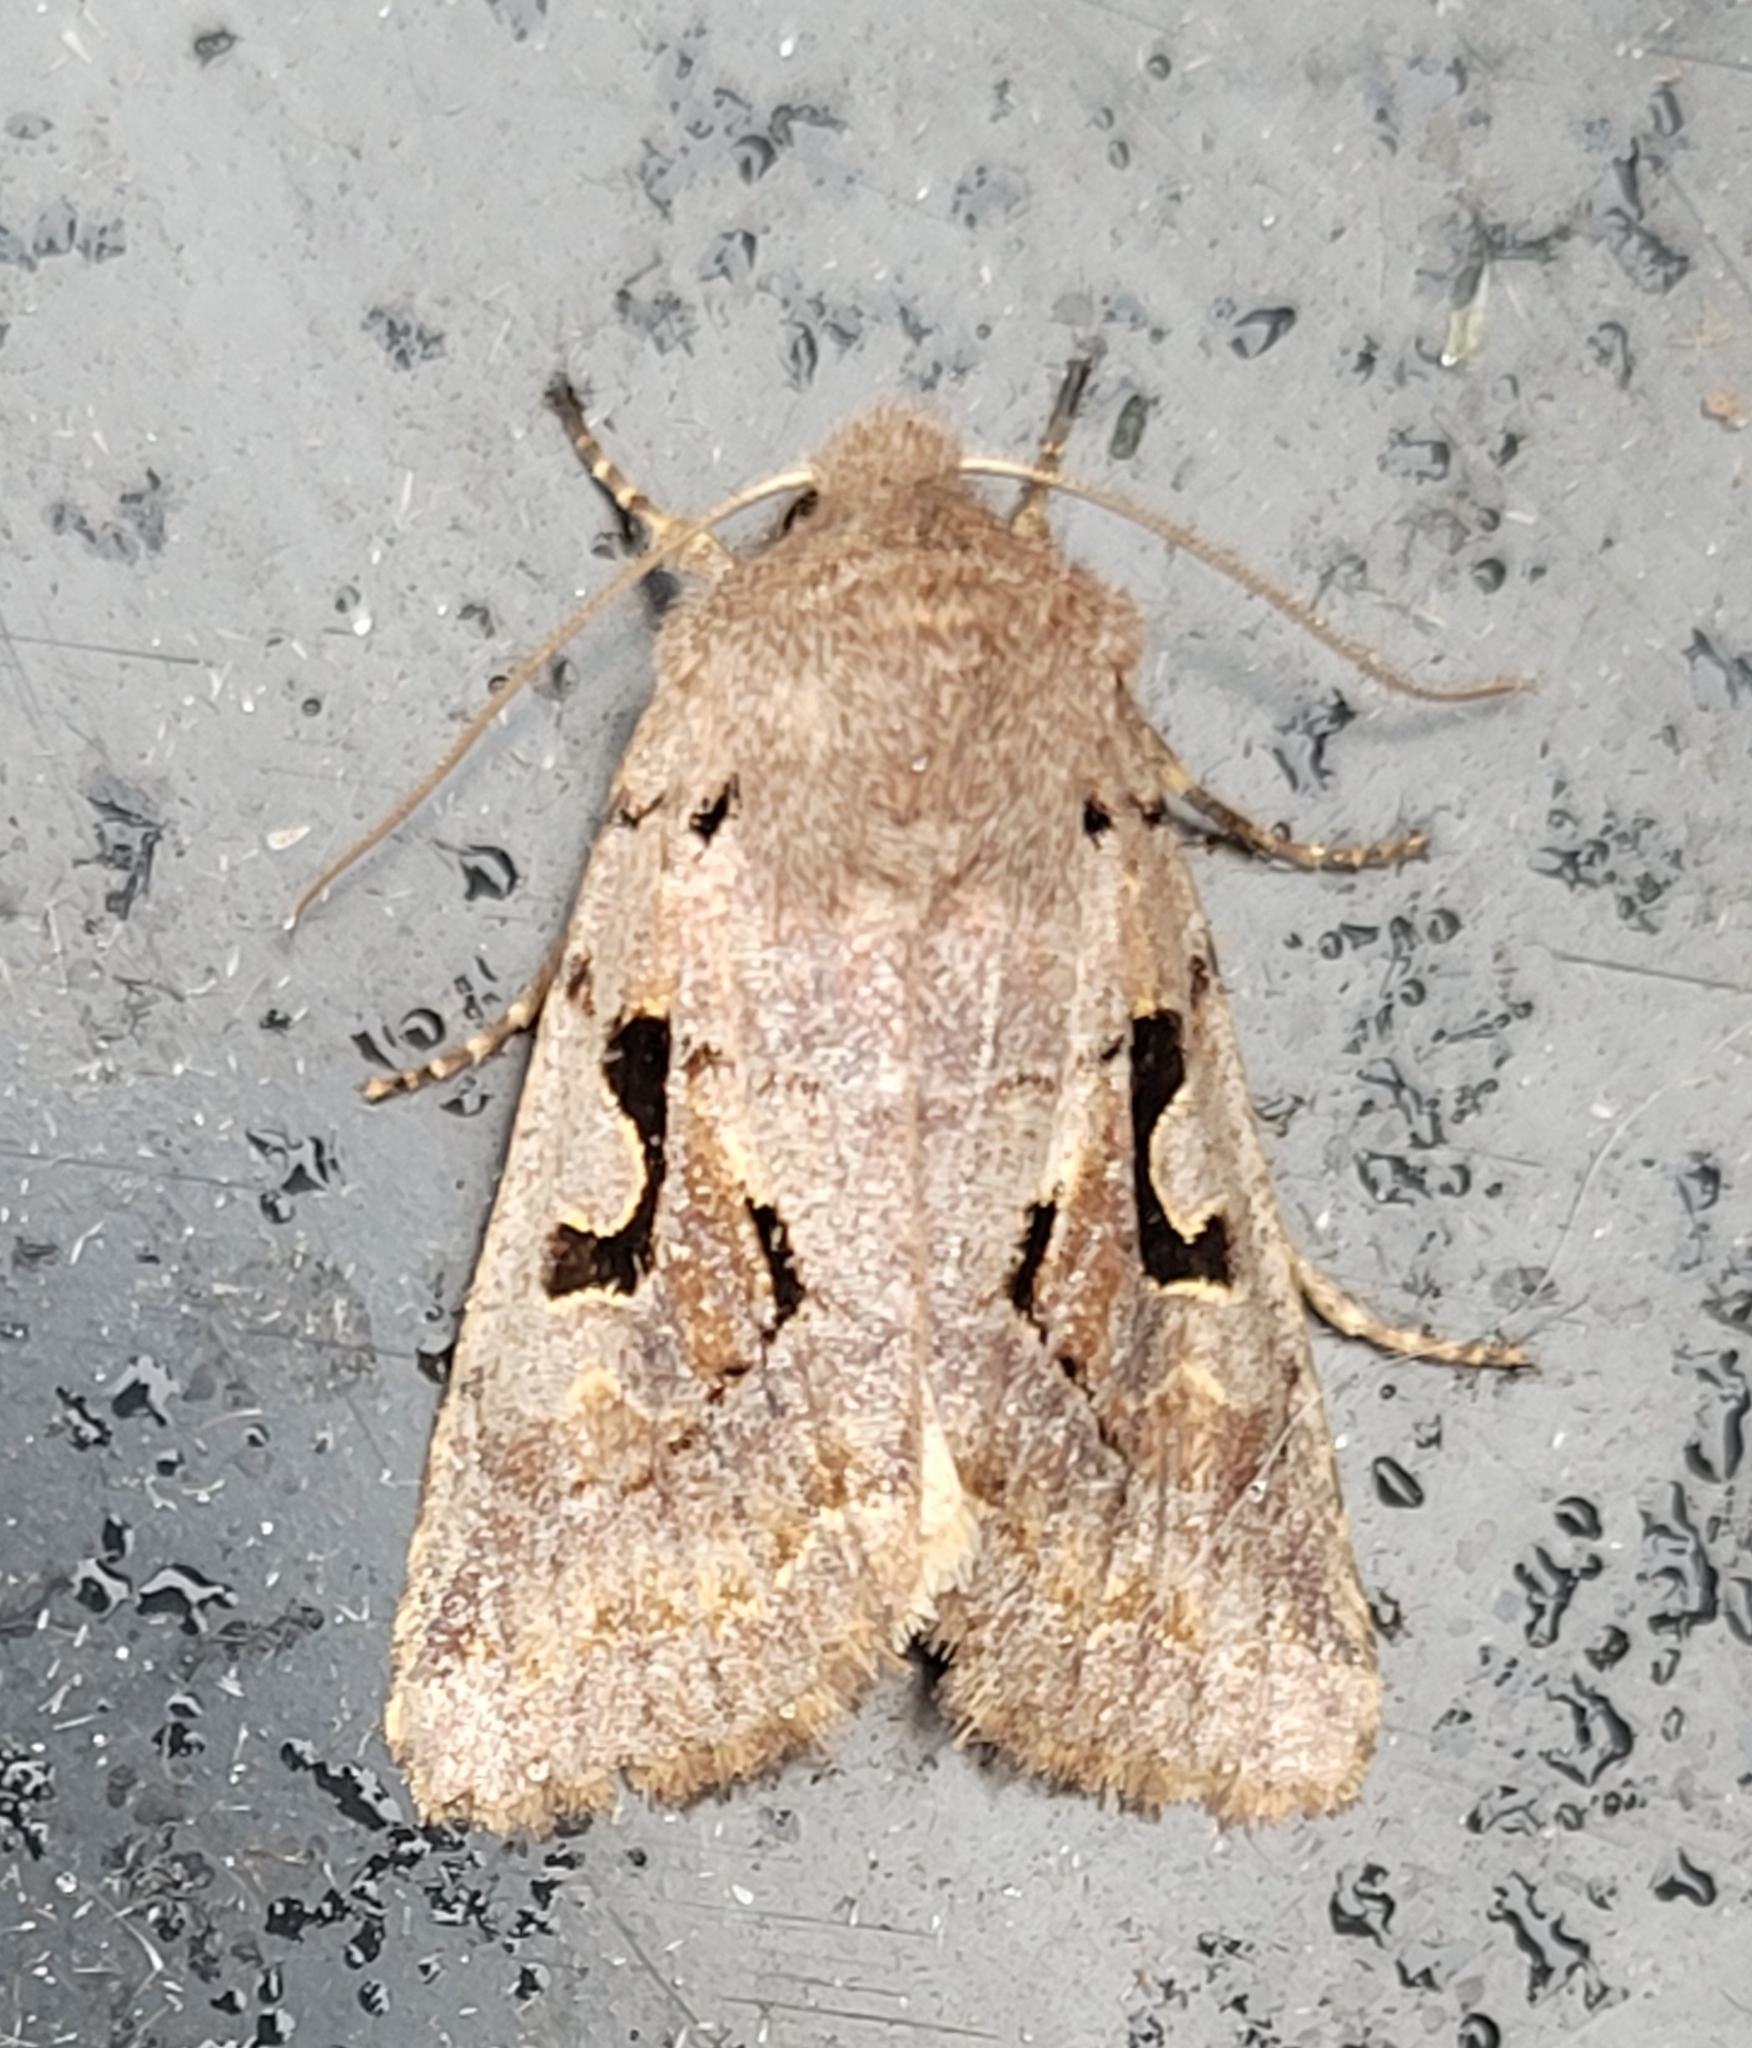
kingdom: Animalia
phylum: Arthropoda
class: Insecta
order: Lepidoptera
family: Noctuidae
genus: Orthosia
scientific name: Orthosia gothica
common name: Hebrew character
